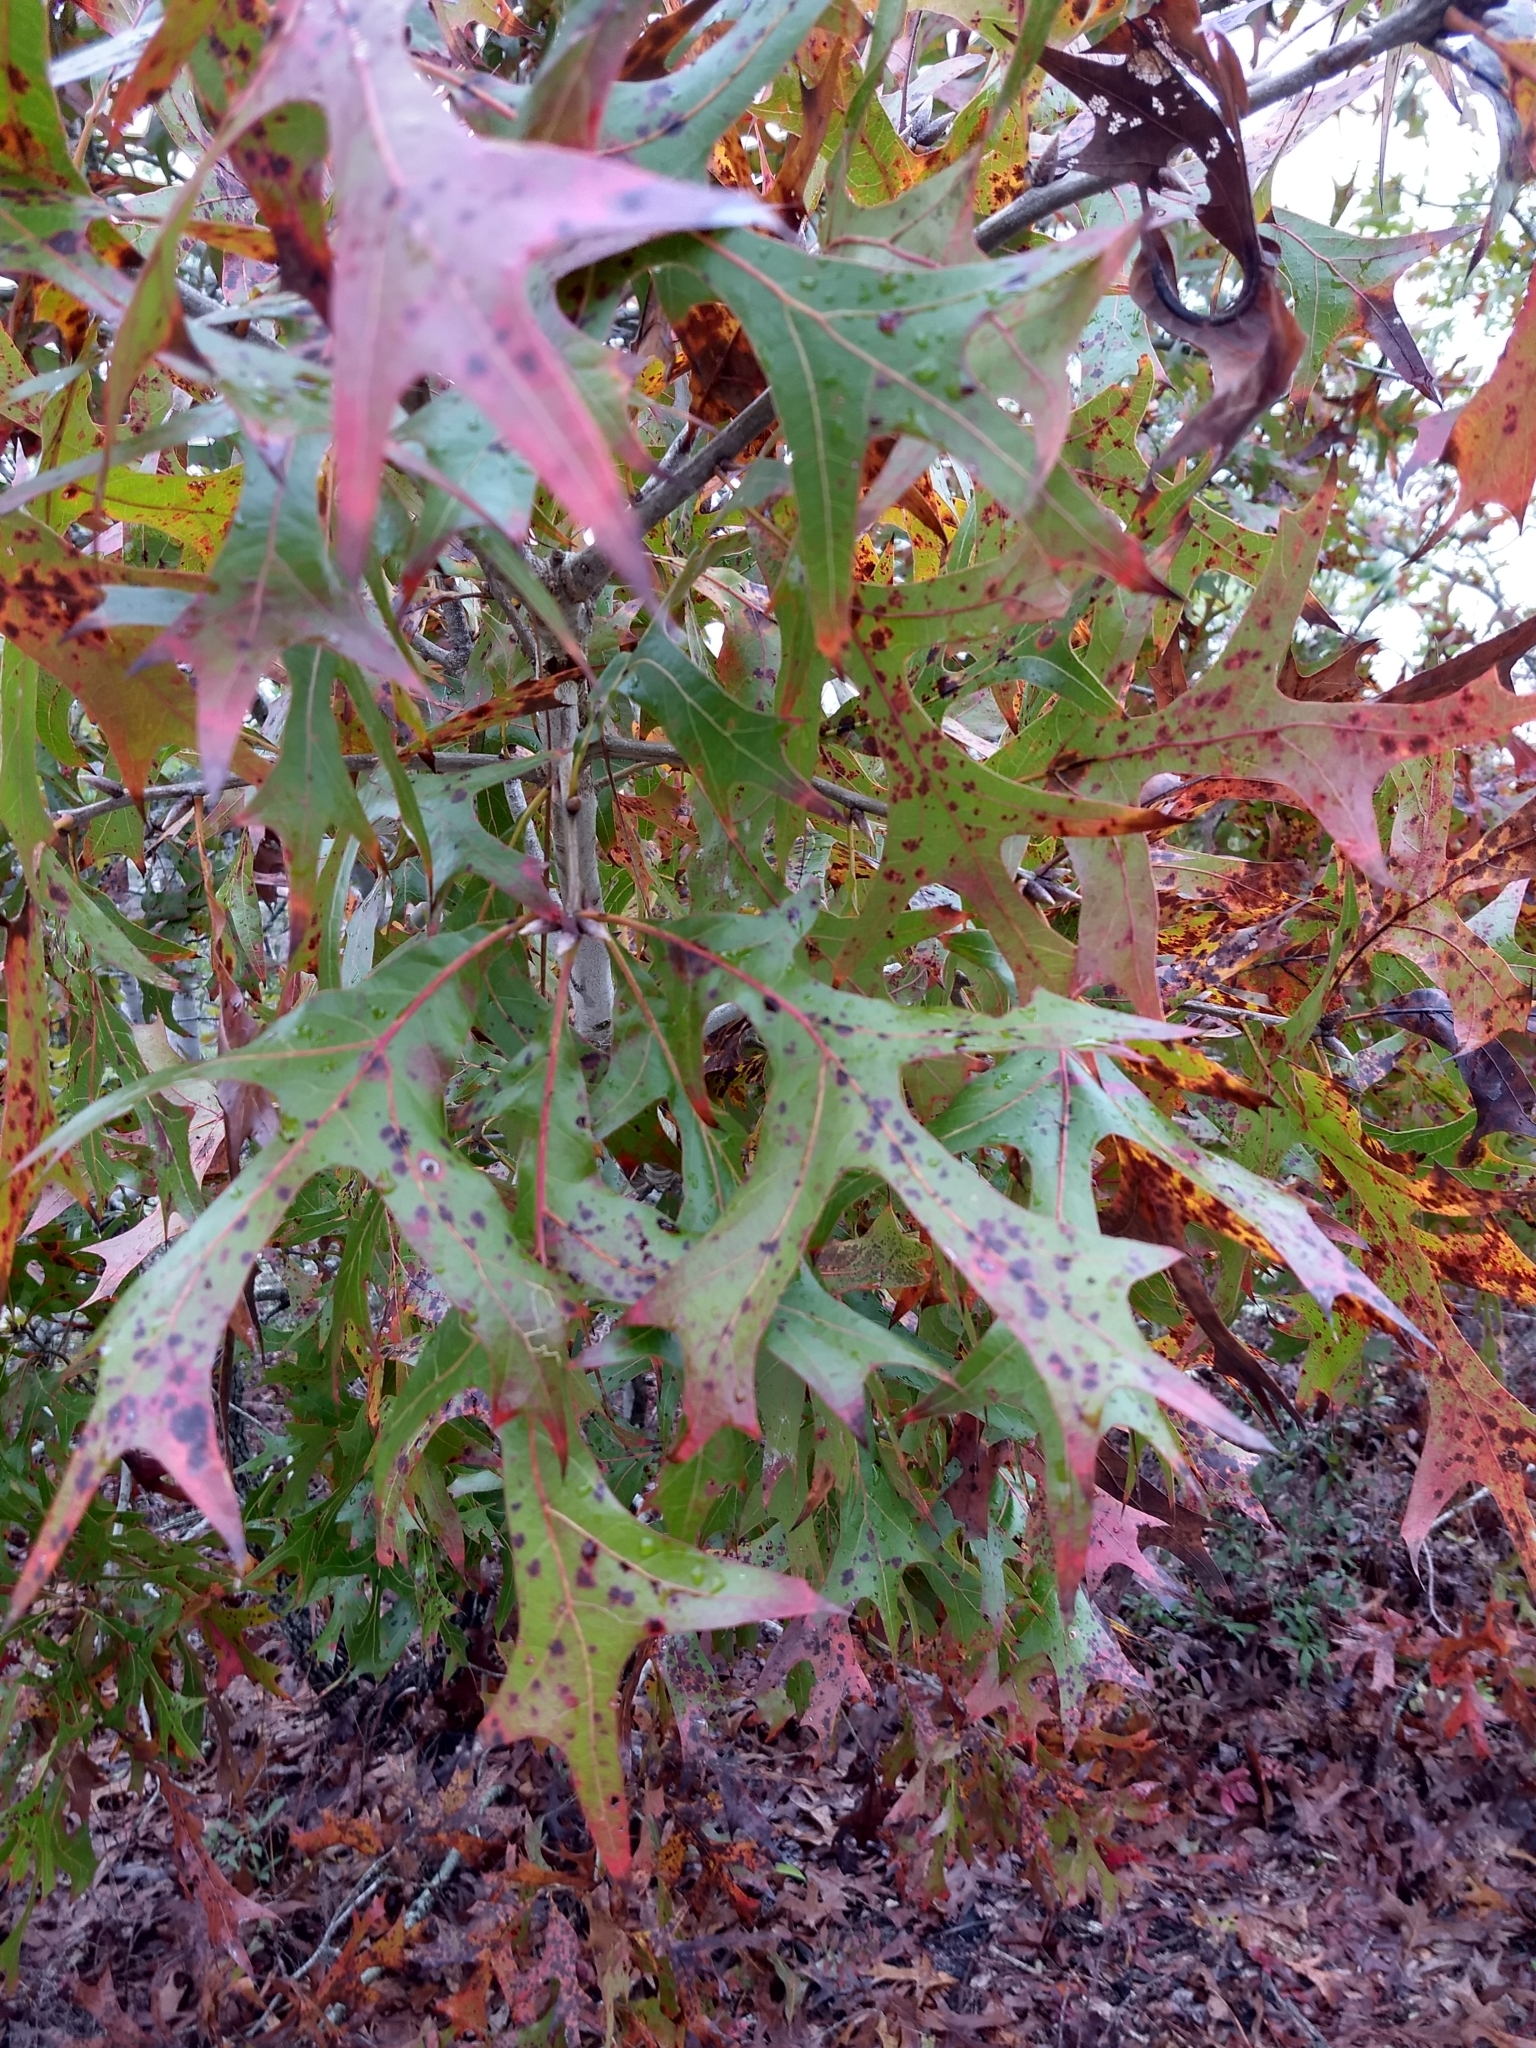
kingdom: Plantae
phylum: Tracheophyta
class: Magnoliopsida
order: Fagales
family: Fagaceae
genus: Quercus
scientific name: Quercus laevis
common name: Turkey oak
